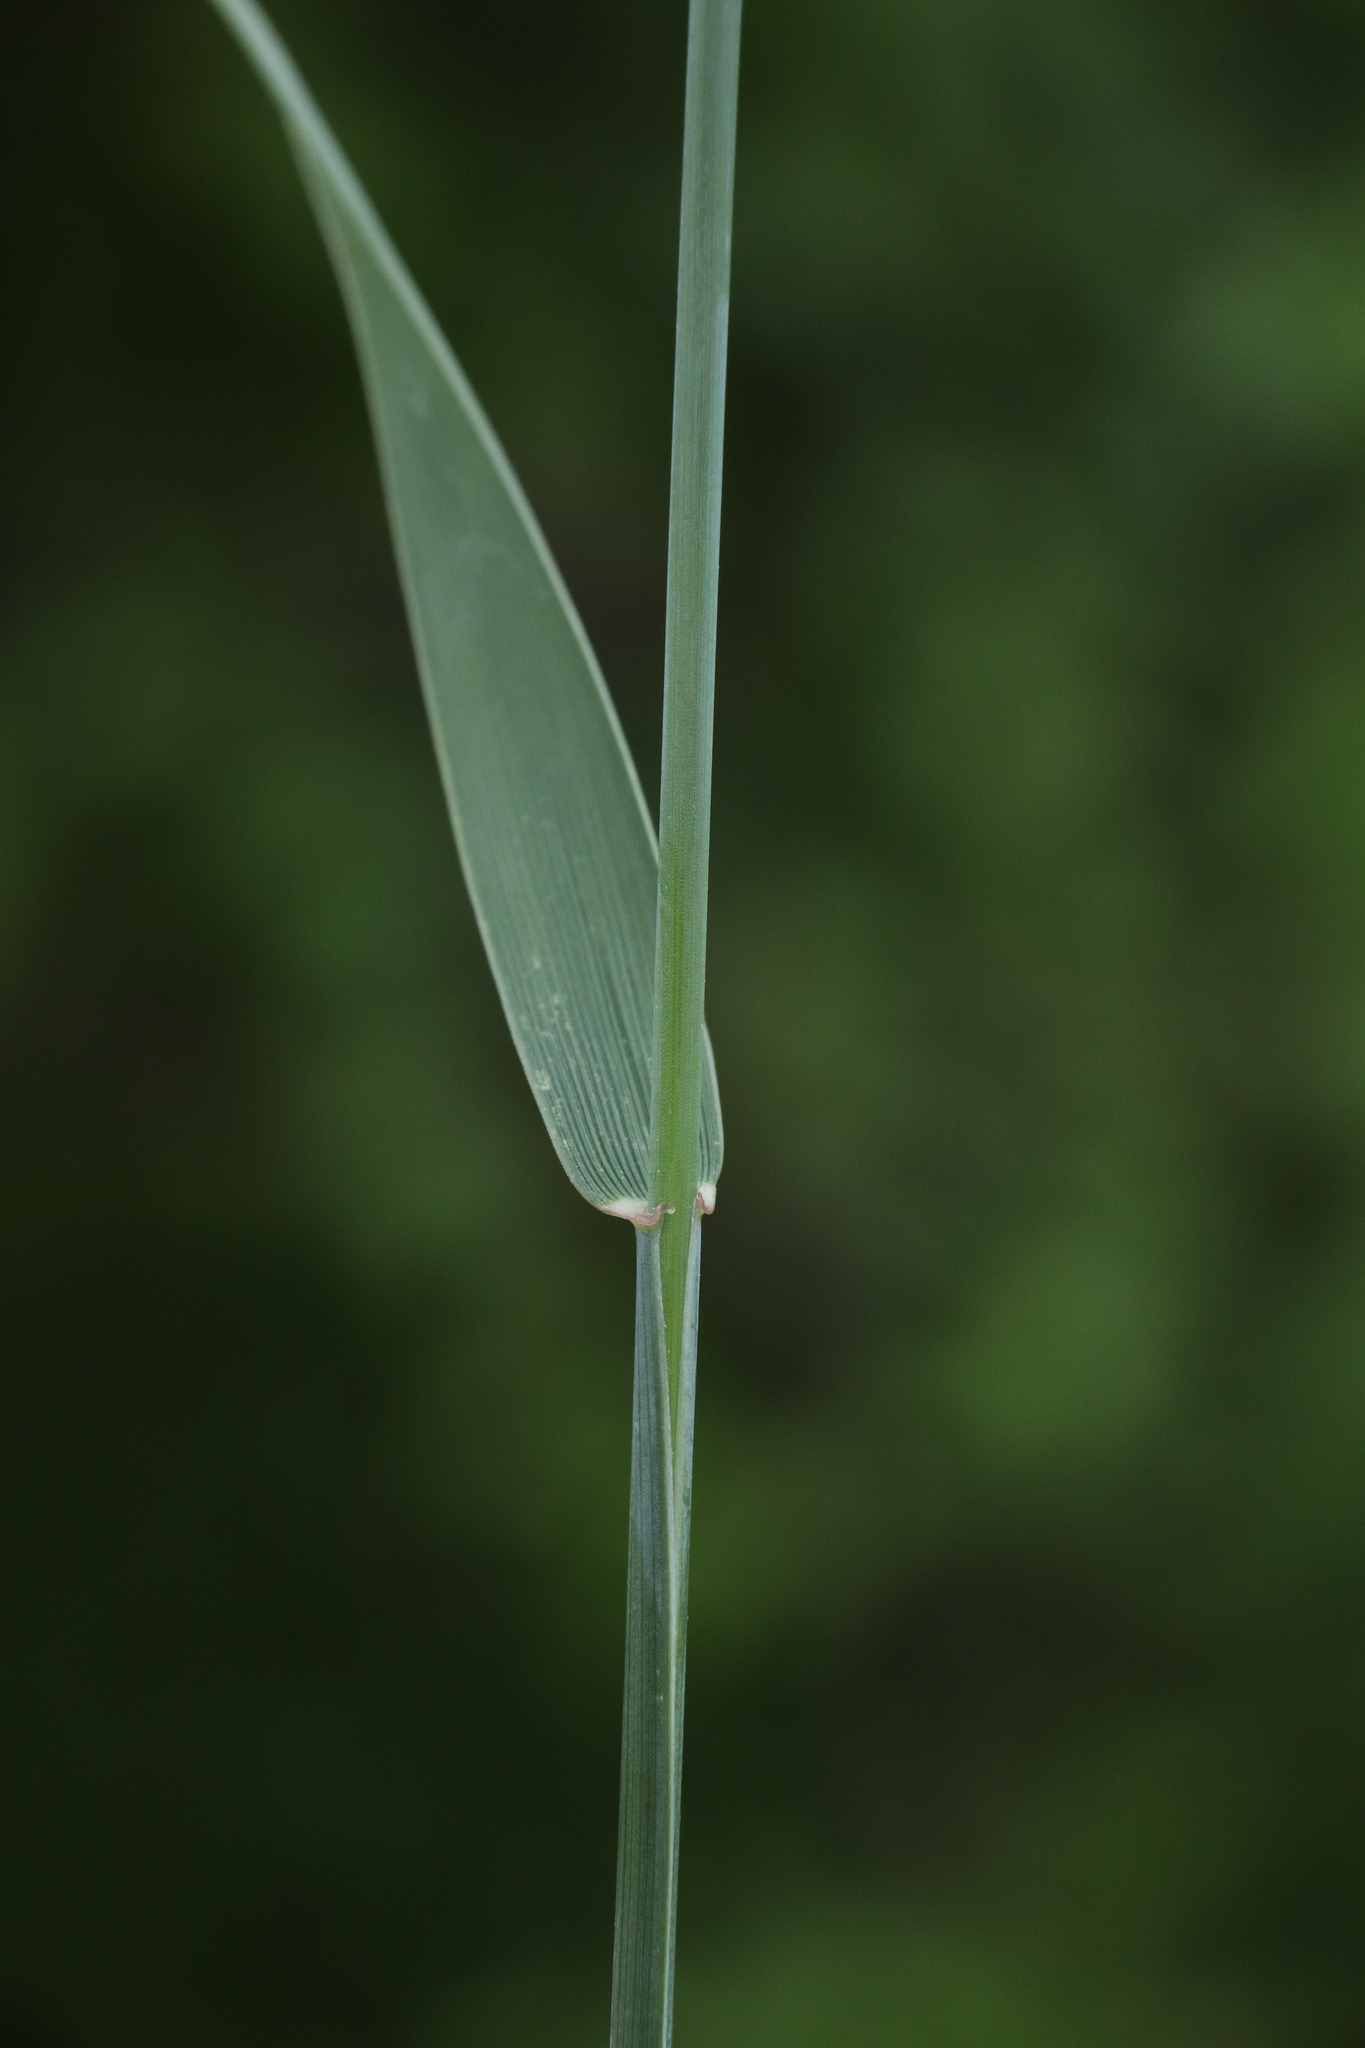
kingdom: Plantae
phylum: Tracheophyta
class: Liliopsida
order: Poales
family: Poaceae
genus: Elymus
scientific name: Elymus repens
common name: Quackgrass
